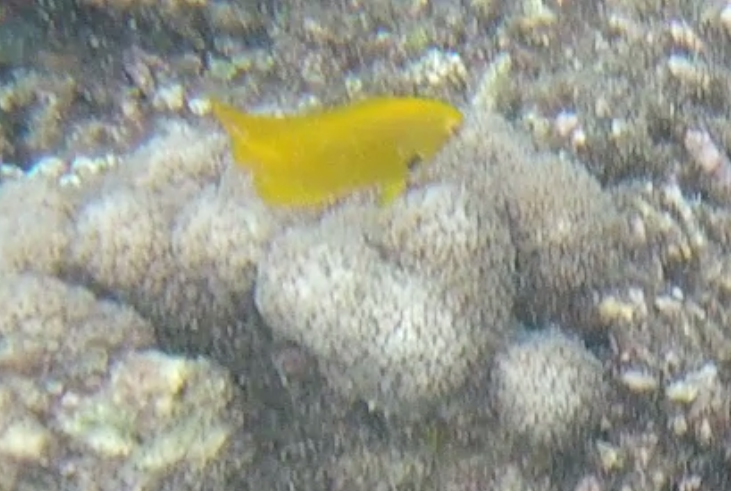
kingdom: Animalia
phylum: Chordata
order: Perciformes
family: Pomacentridae
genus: Pomacentrus
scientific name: Pomacentrus sulfureus
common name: Sulfur damsel
